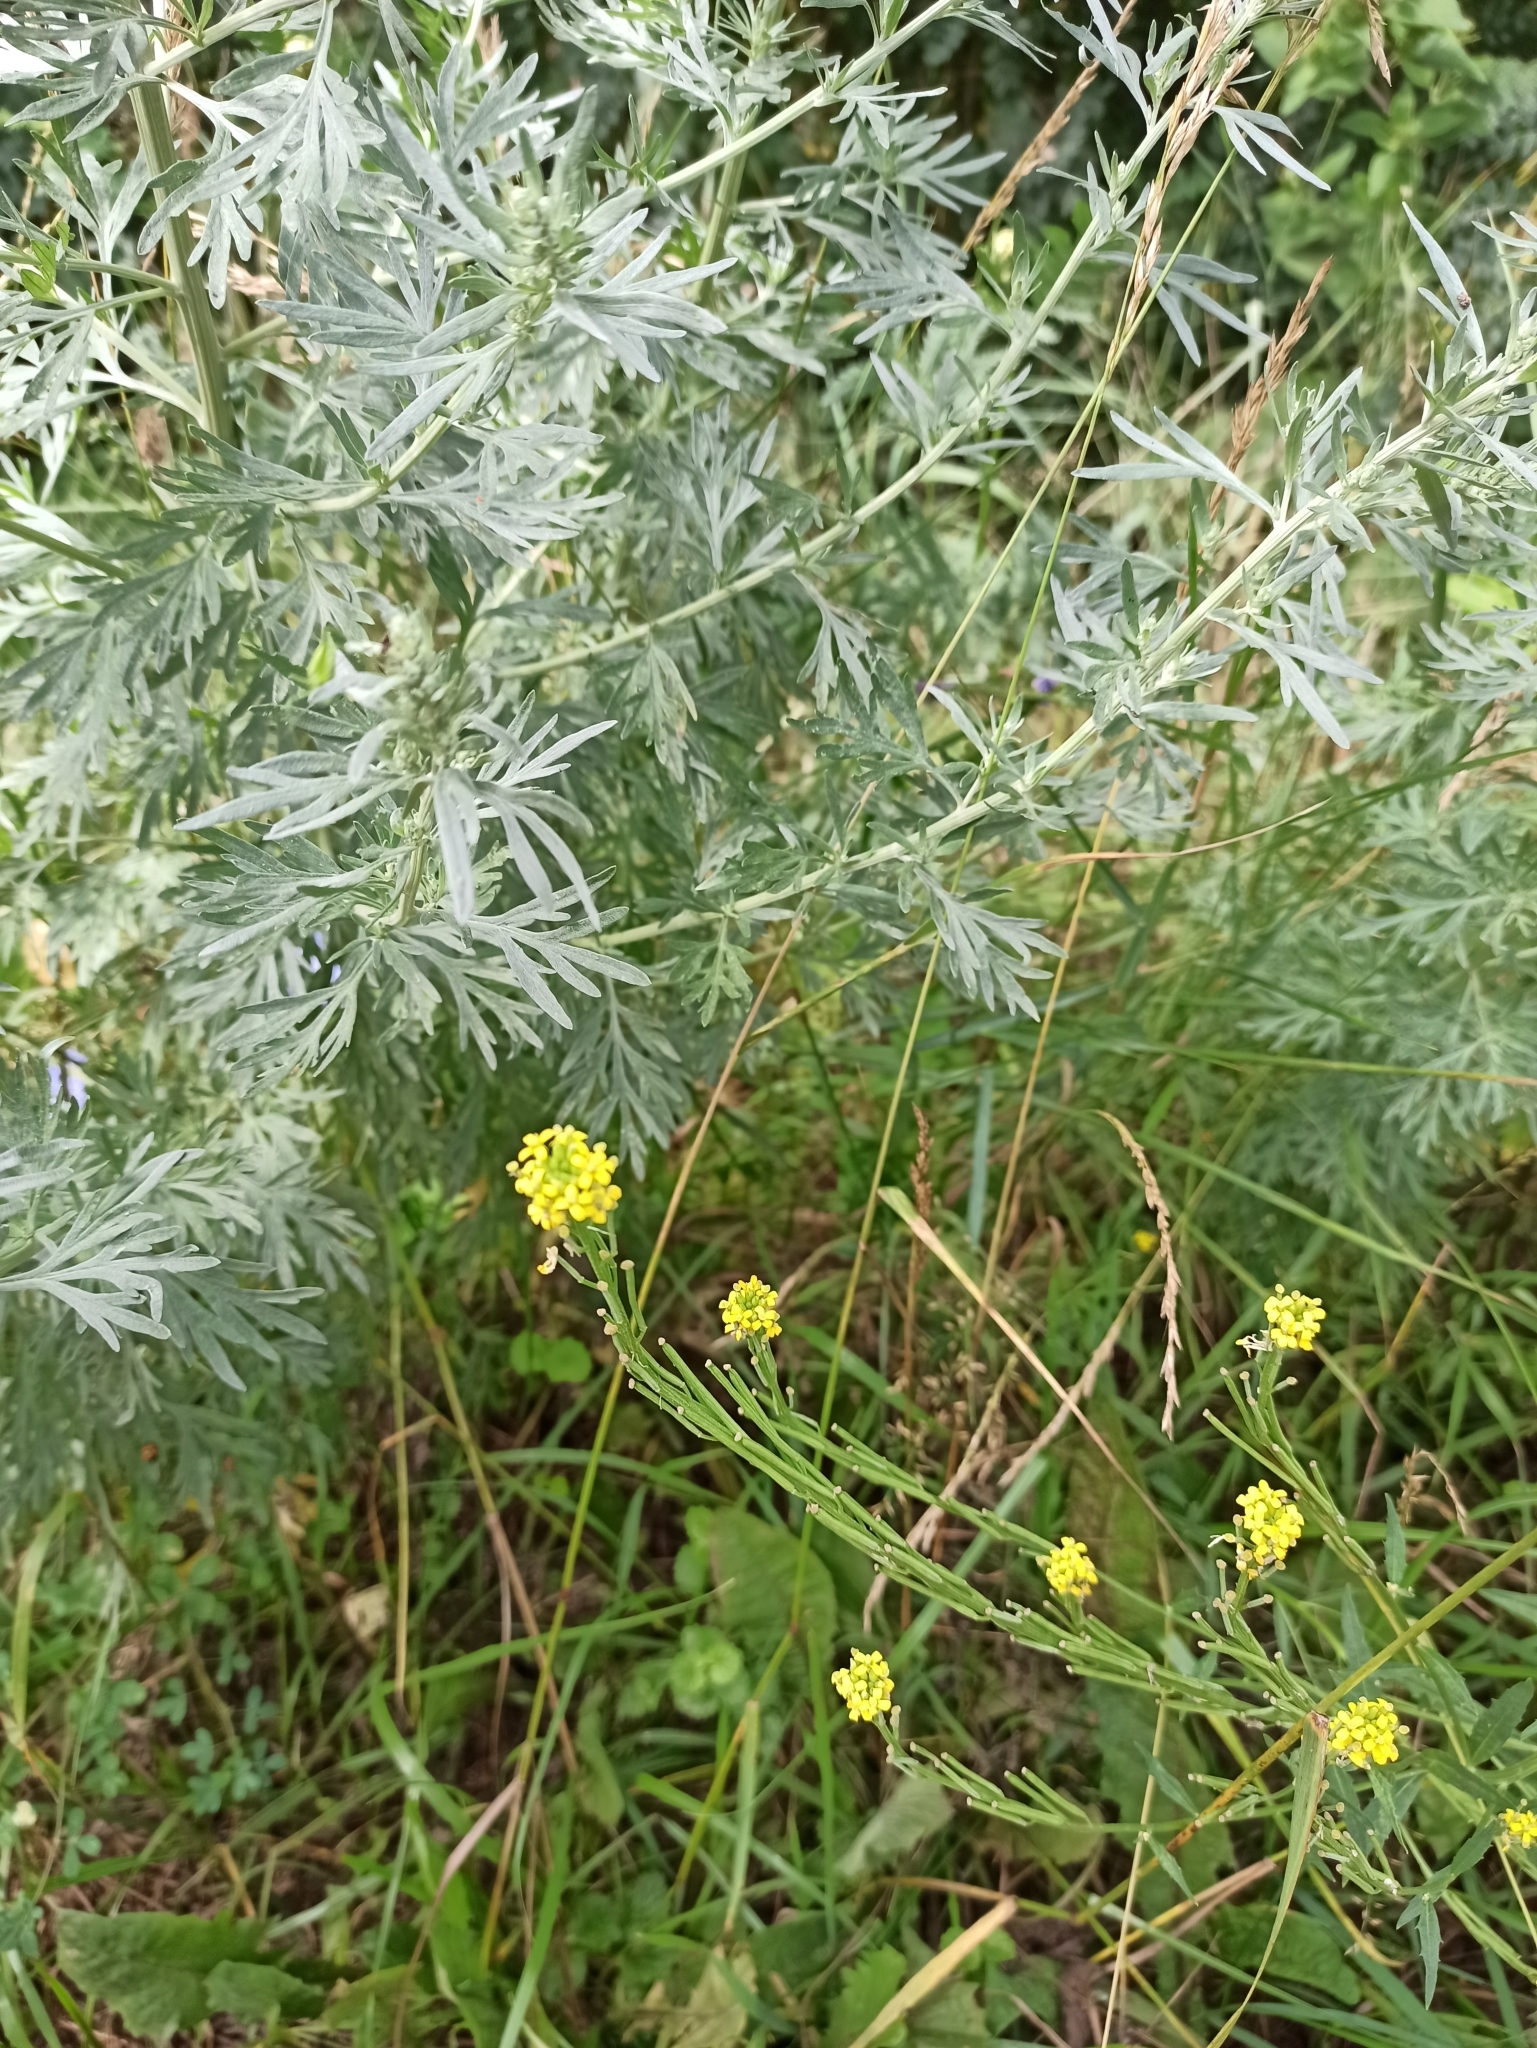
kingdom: Plantae
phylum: Tracheophyta
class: Magnoliopsida
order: Brassicales
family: Brassicaceae
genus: Sisymbrium
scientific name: Sisymbrium officinale
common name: Hedge mustard
